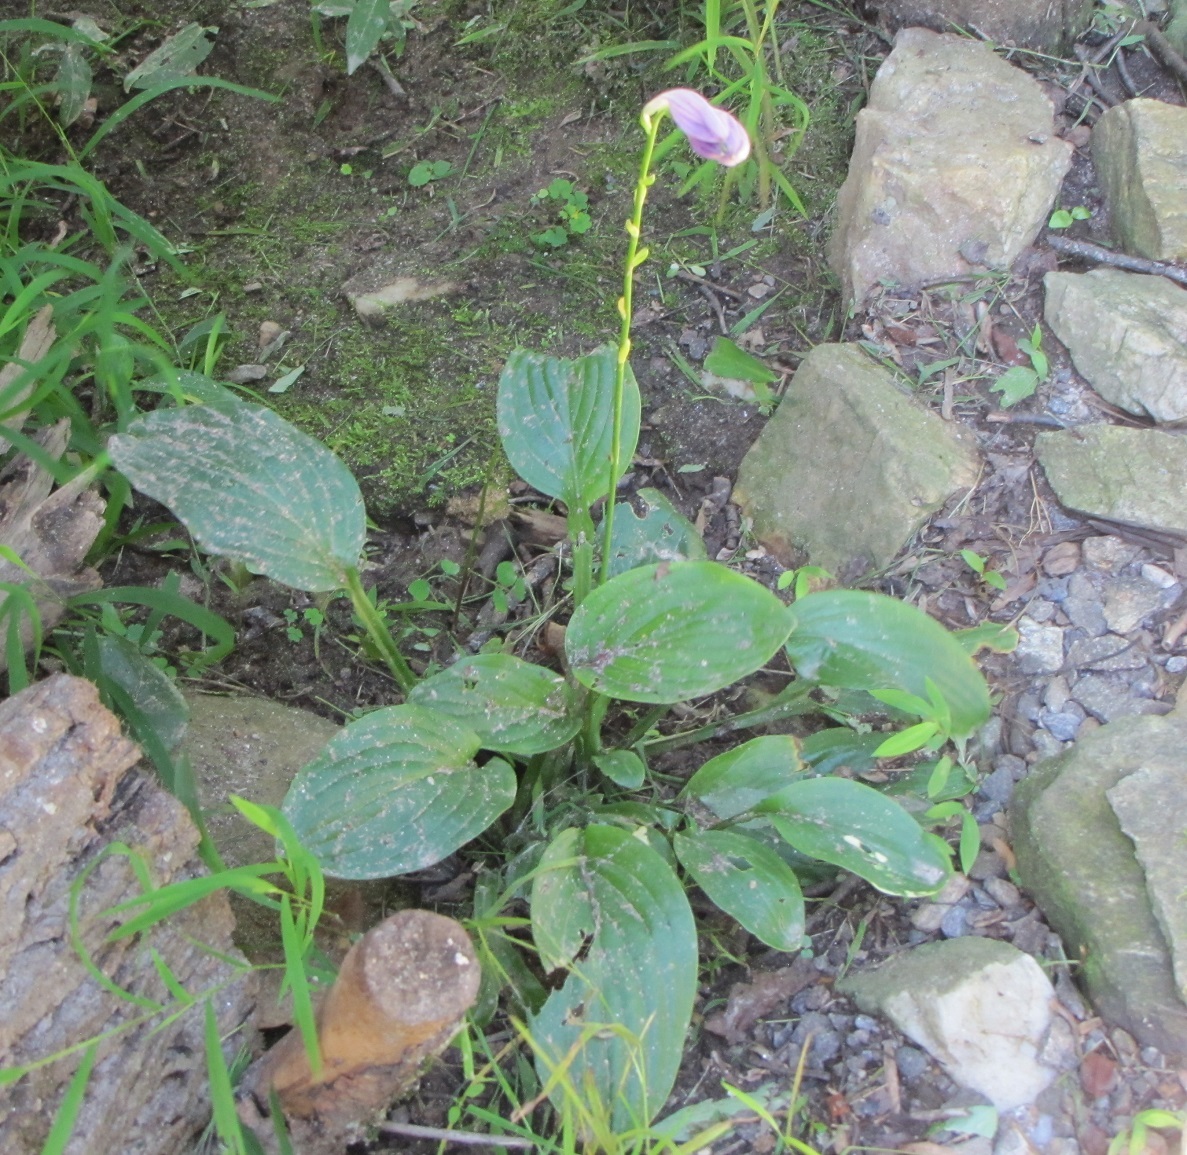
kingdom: Plantae
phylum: Tracheophyta
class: Liliopsida
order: Asparagales
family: Asparagaceae
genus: Hosta
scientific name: Hosta ventricosa
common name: Blue plantain-lily
